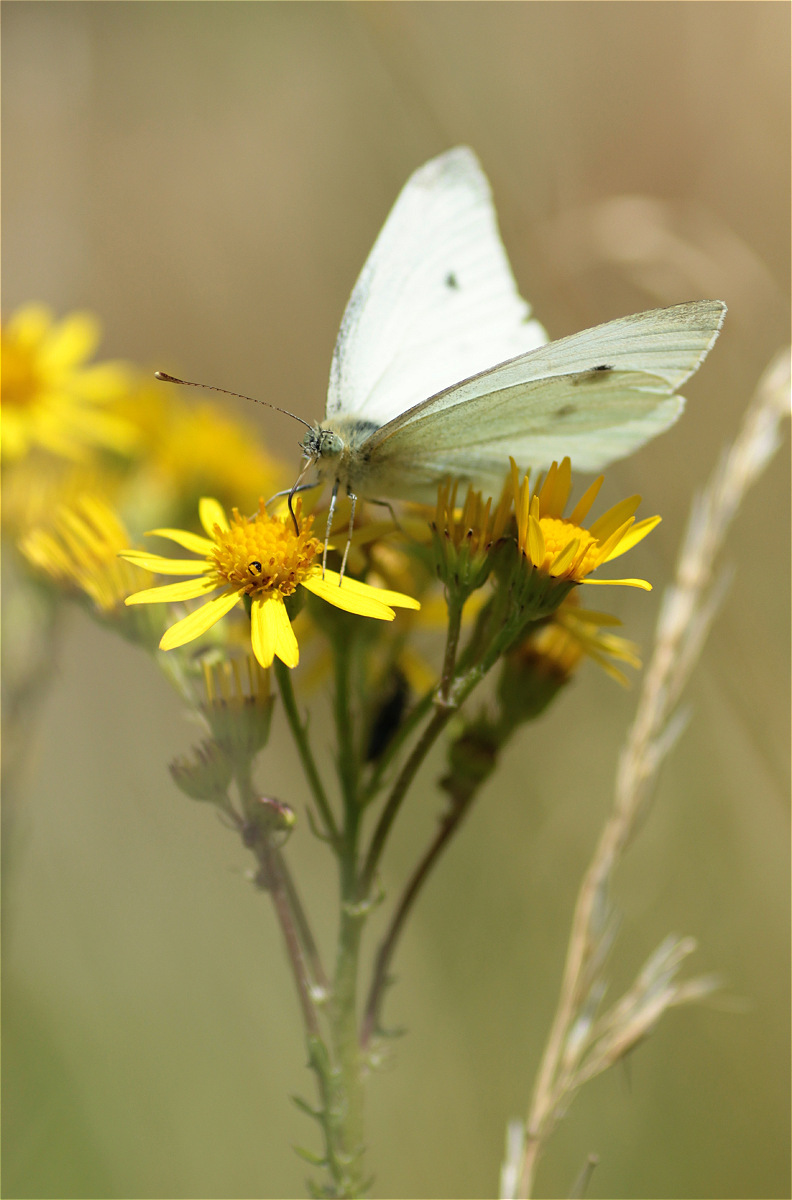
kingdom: Animalia
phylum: Arthropoda
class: Insecta
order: Lepidoptera
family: Pieridae
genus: Pieris
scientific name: Pieris rapae
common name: Small white
